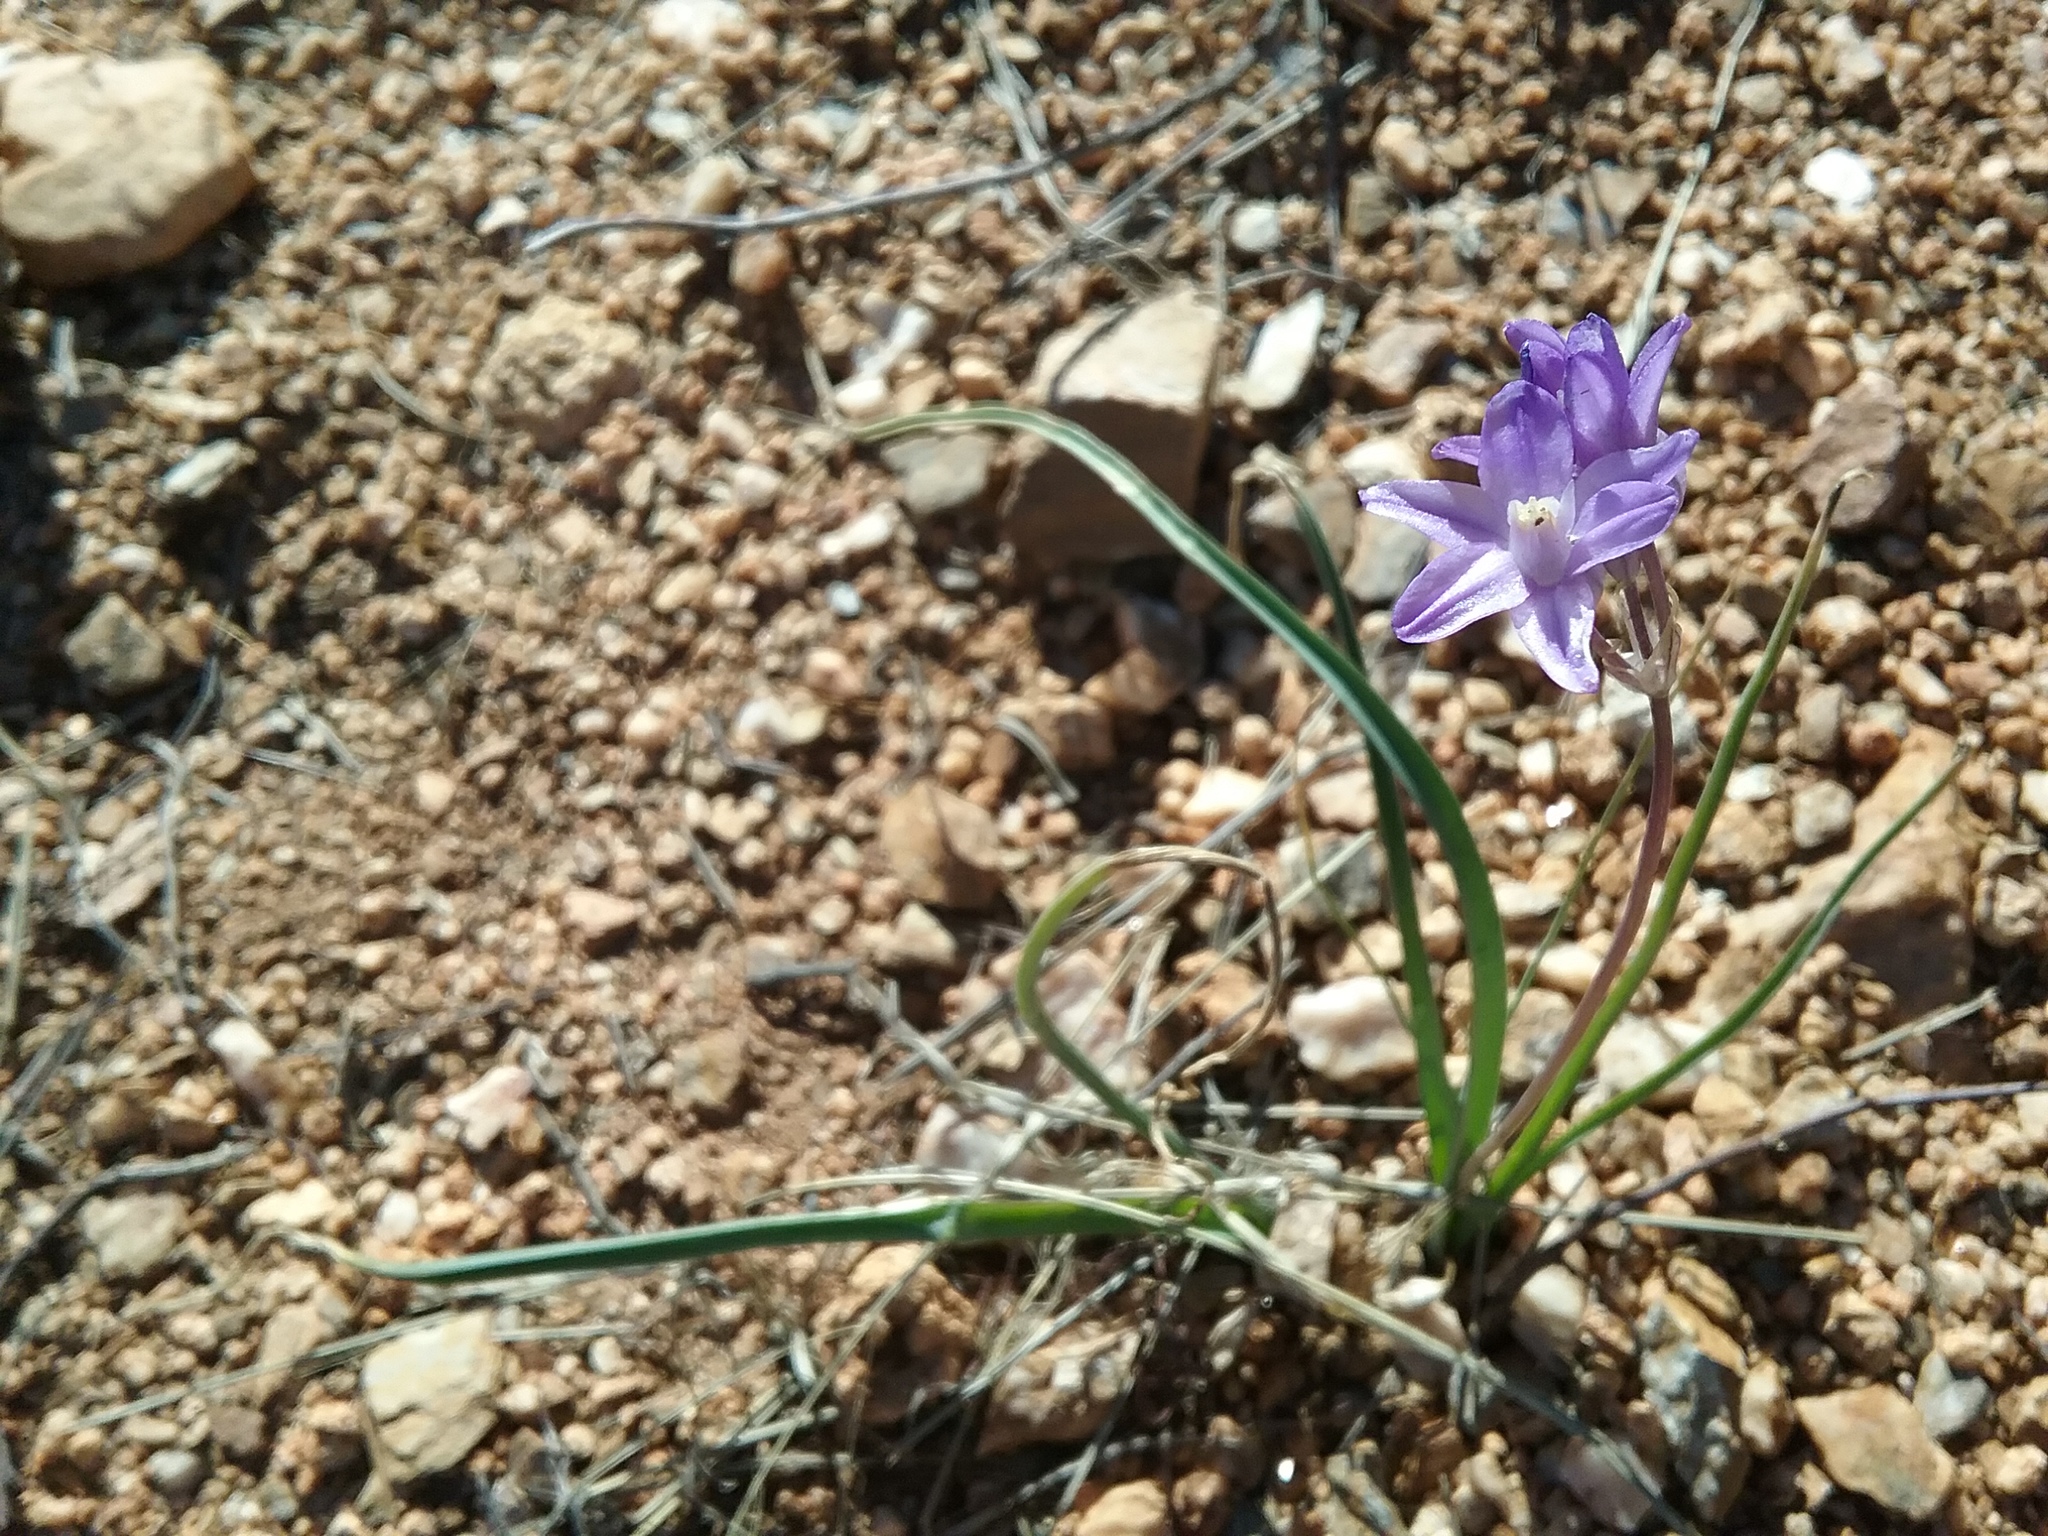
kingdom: Plantae
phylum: Tracheophyta
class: Liliopsida
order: Asparagales
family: Asparagaceae
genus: Dipterostemon
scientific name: Dipterostemon capitatus
